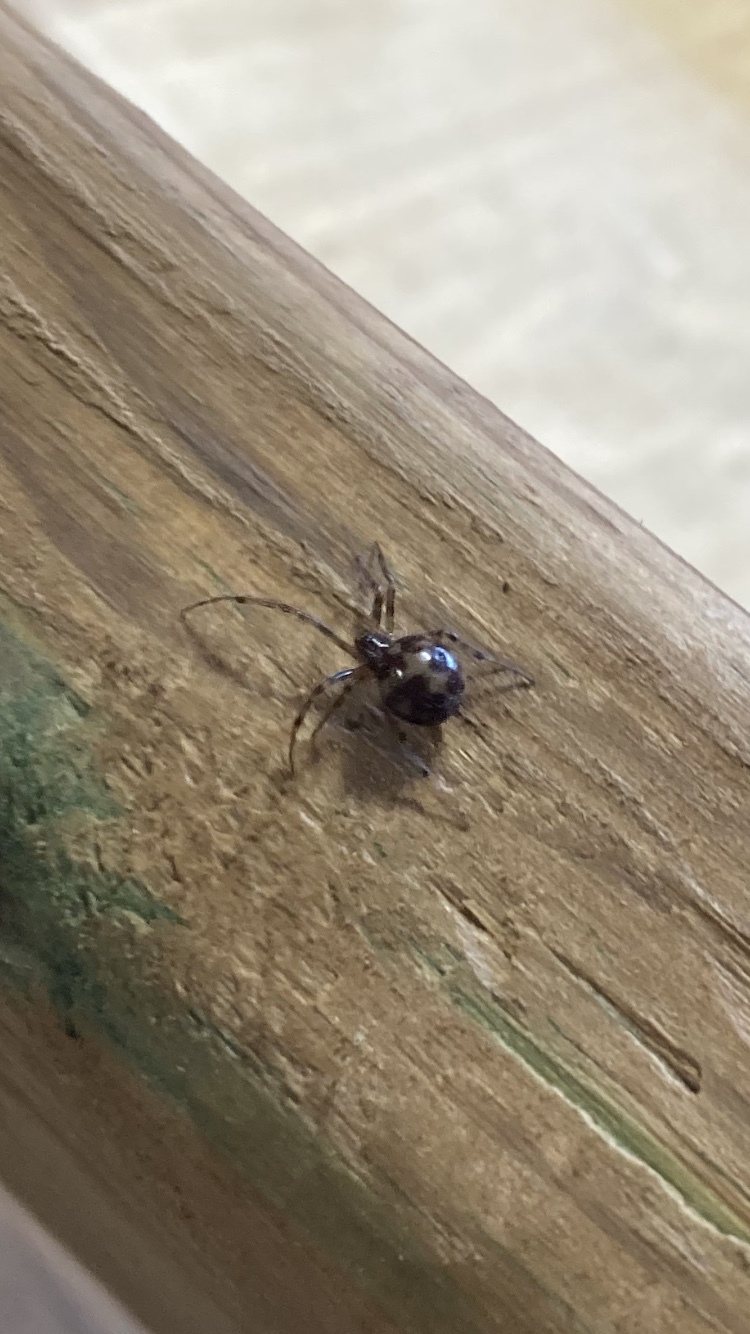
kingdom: Animalia
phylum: Arthropoda
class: Arachnida
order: Araneae
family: Theridiidae
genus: Steatoda
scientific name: Steatoda triangulosa
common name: Triangulate bud spider
